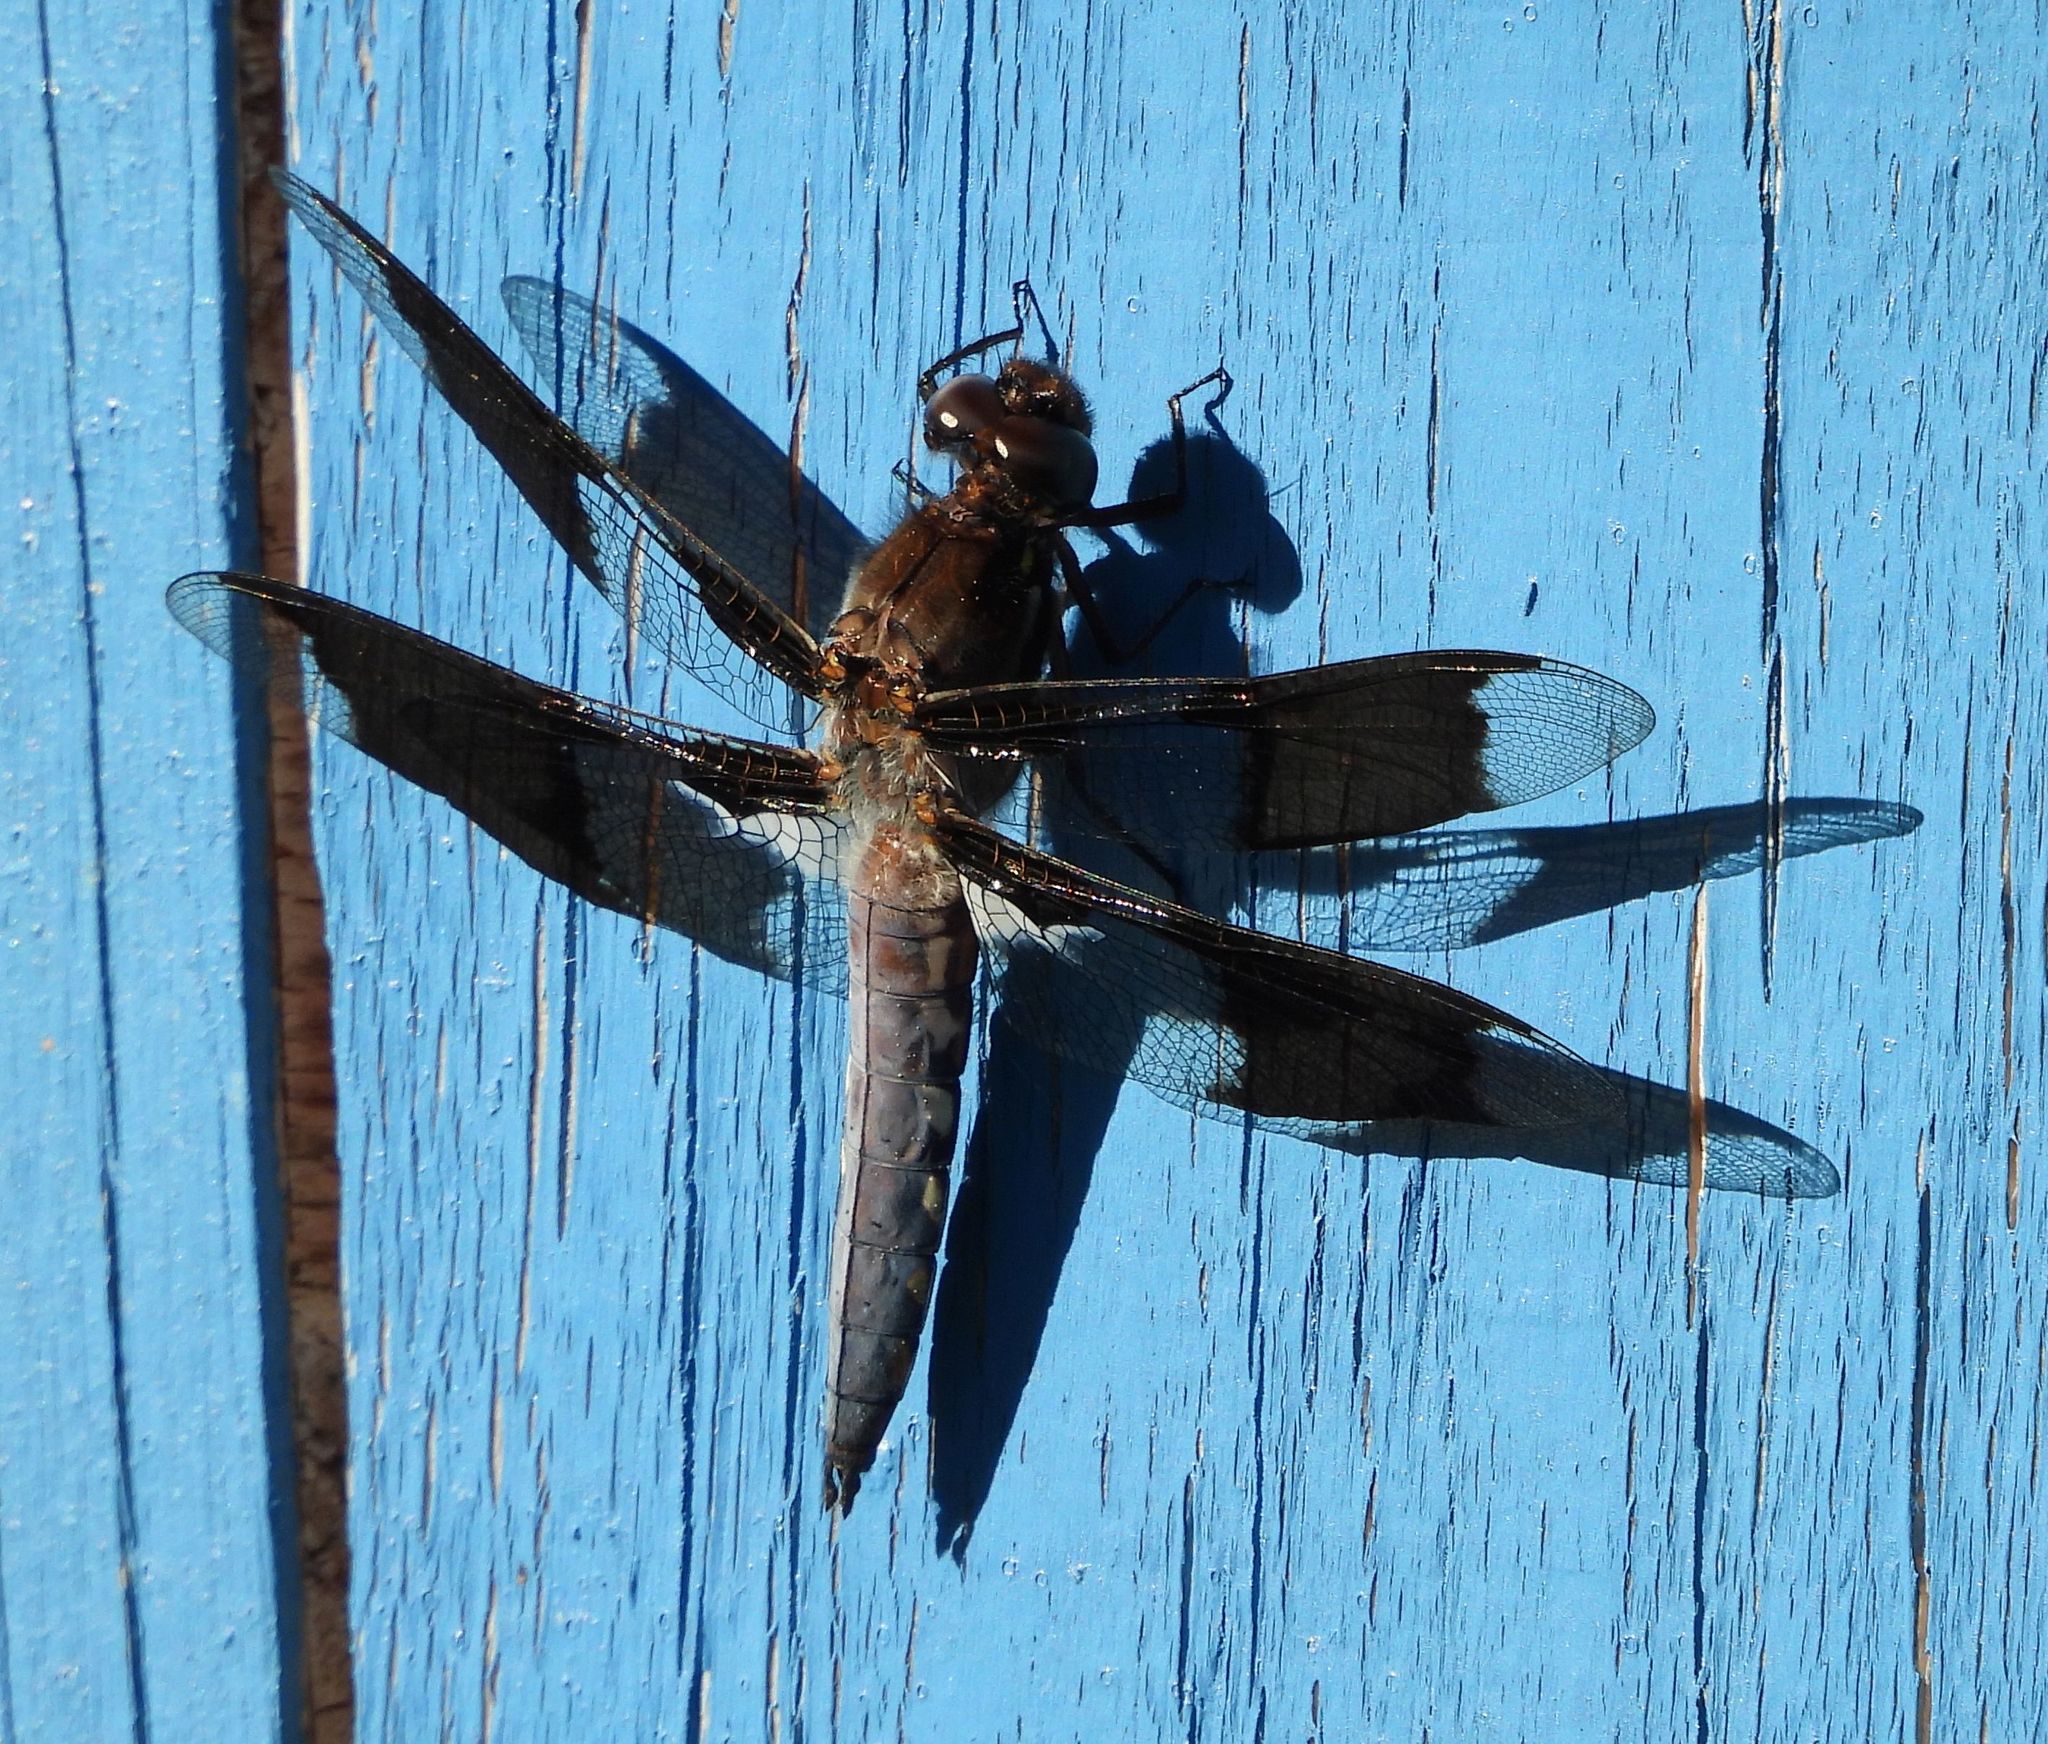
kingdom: Animalia
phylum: Arthropoda
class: Insecta
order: Odonata
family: Libellulidae
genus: Plathemis
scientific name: Plathemis lydia
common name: Common whitetail
